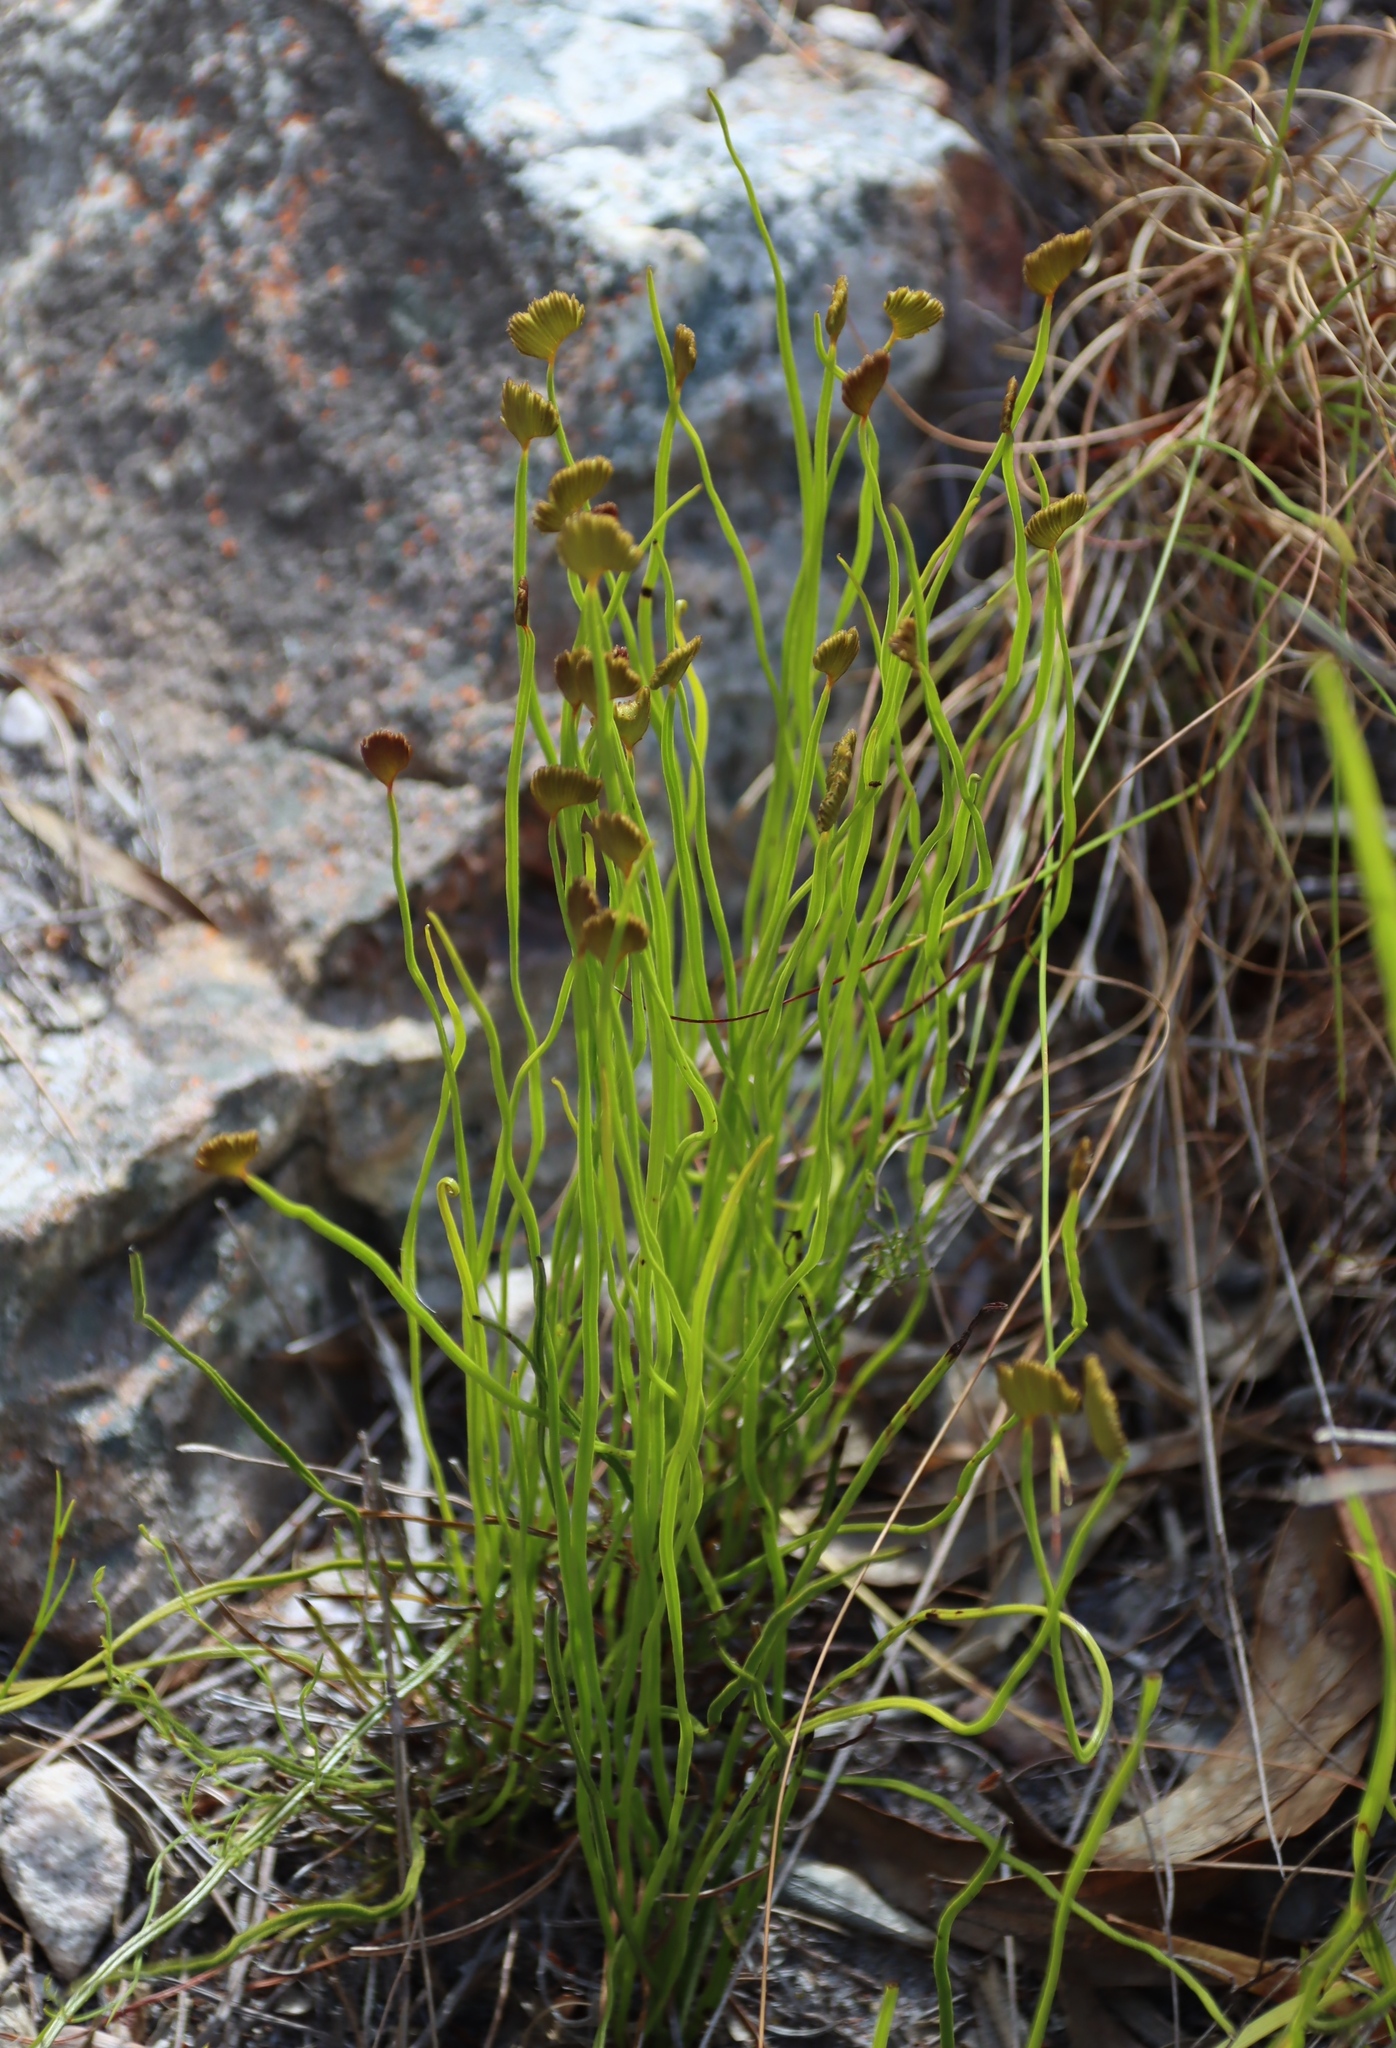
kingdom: Plantae
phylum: Tracheophyta
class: Polypodiopsida
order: Schizaeales
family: Schizaeaceae
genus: Schizaea
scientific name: Schizaea pectinata
